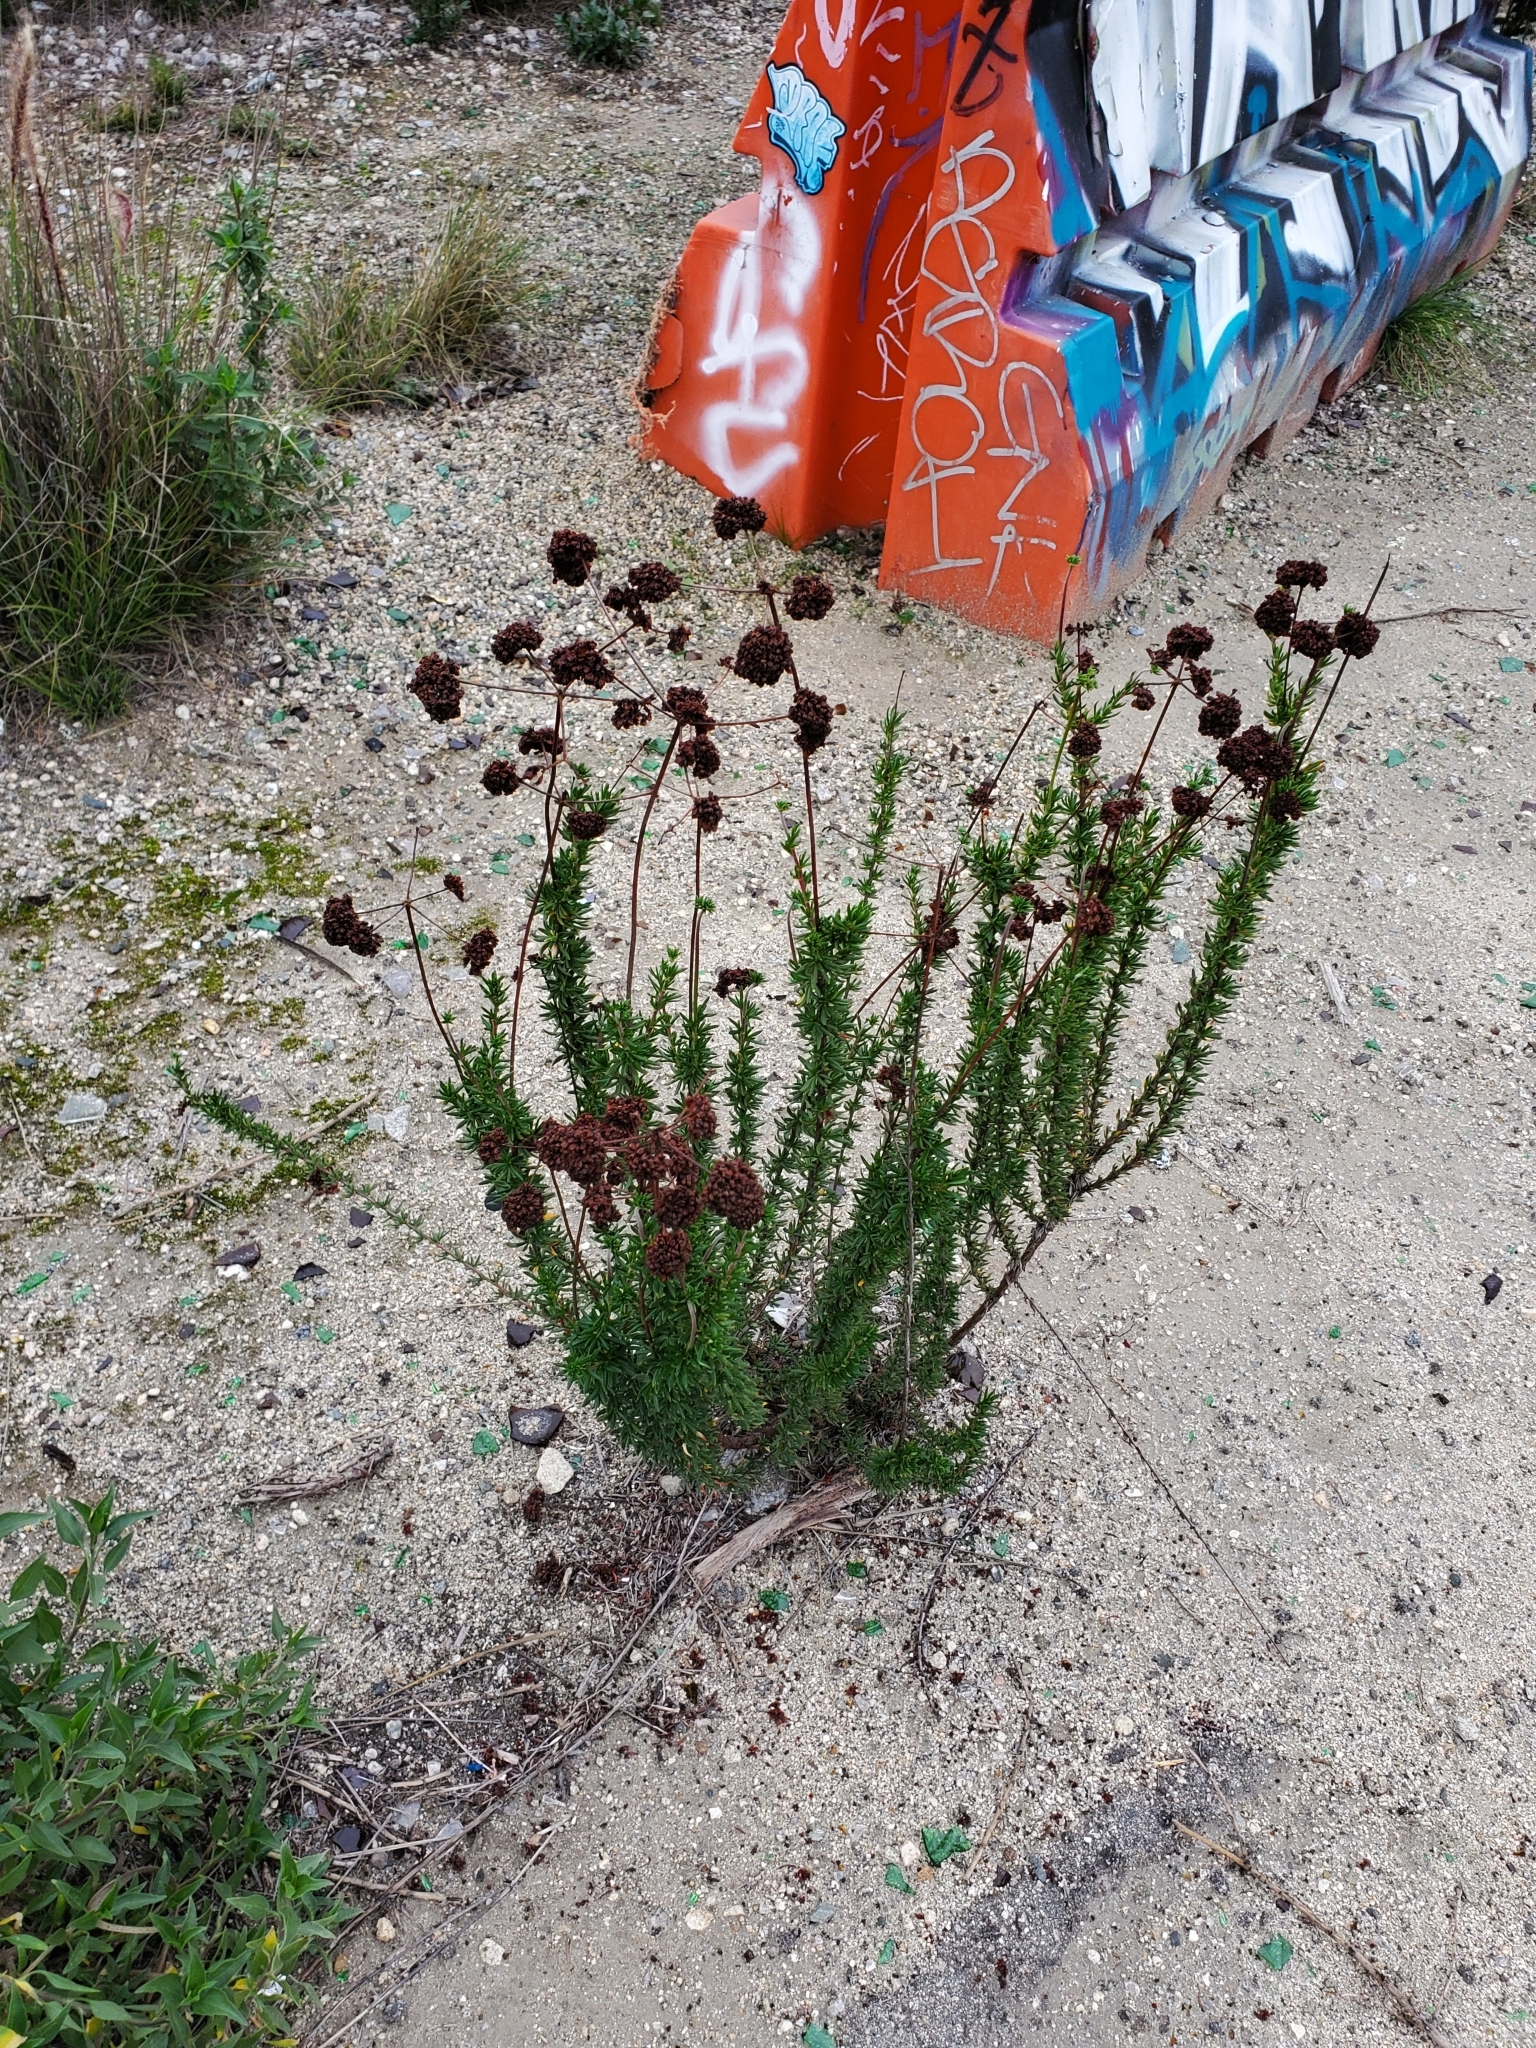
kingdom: Plantae
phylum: Tracheophyta
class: Magnoliopsida
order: Caryophyllales
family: Polygonaceae
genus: Eriogonum
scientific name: Eriogonum fasciculatum
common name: California wild buckwheat
